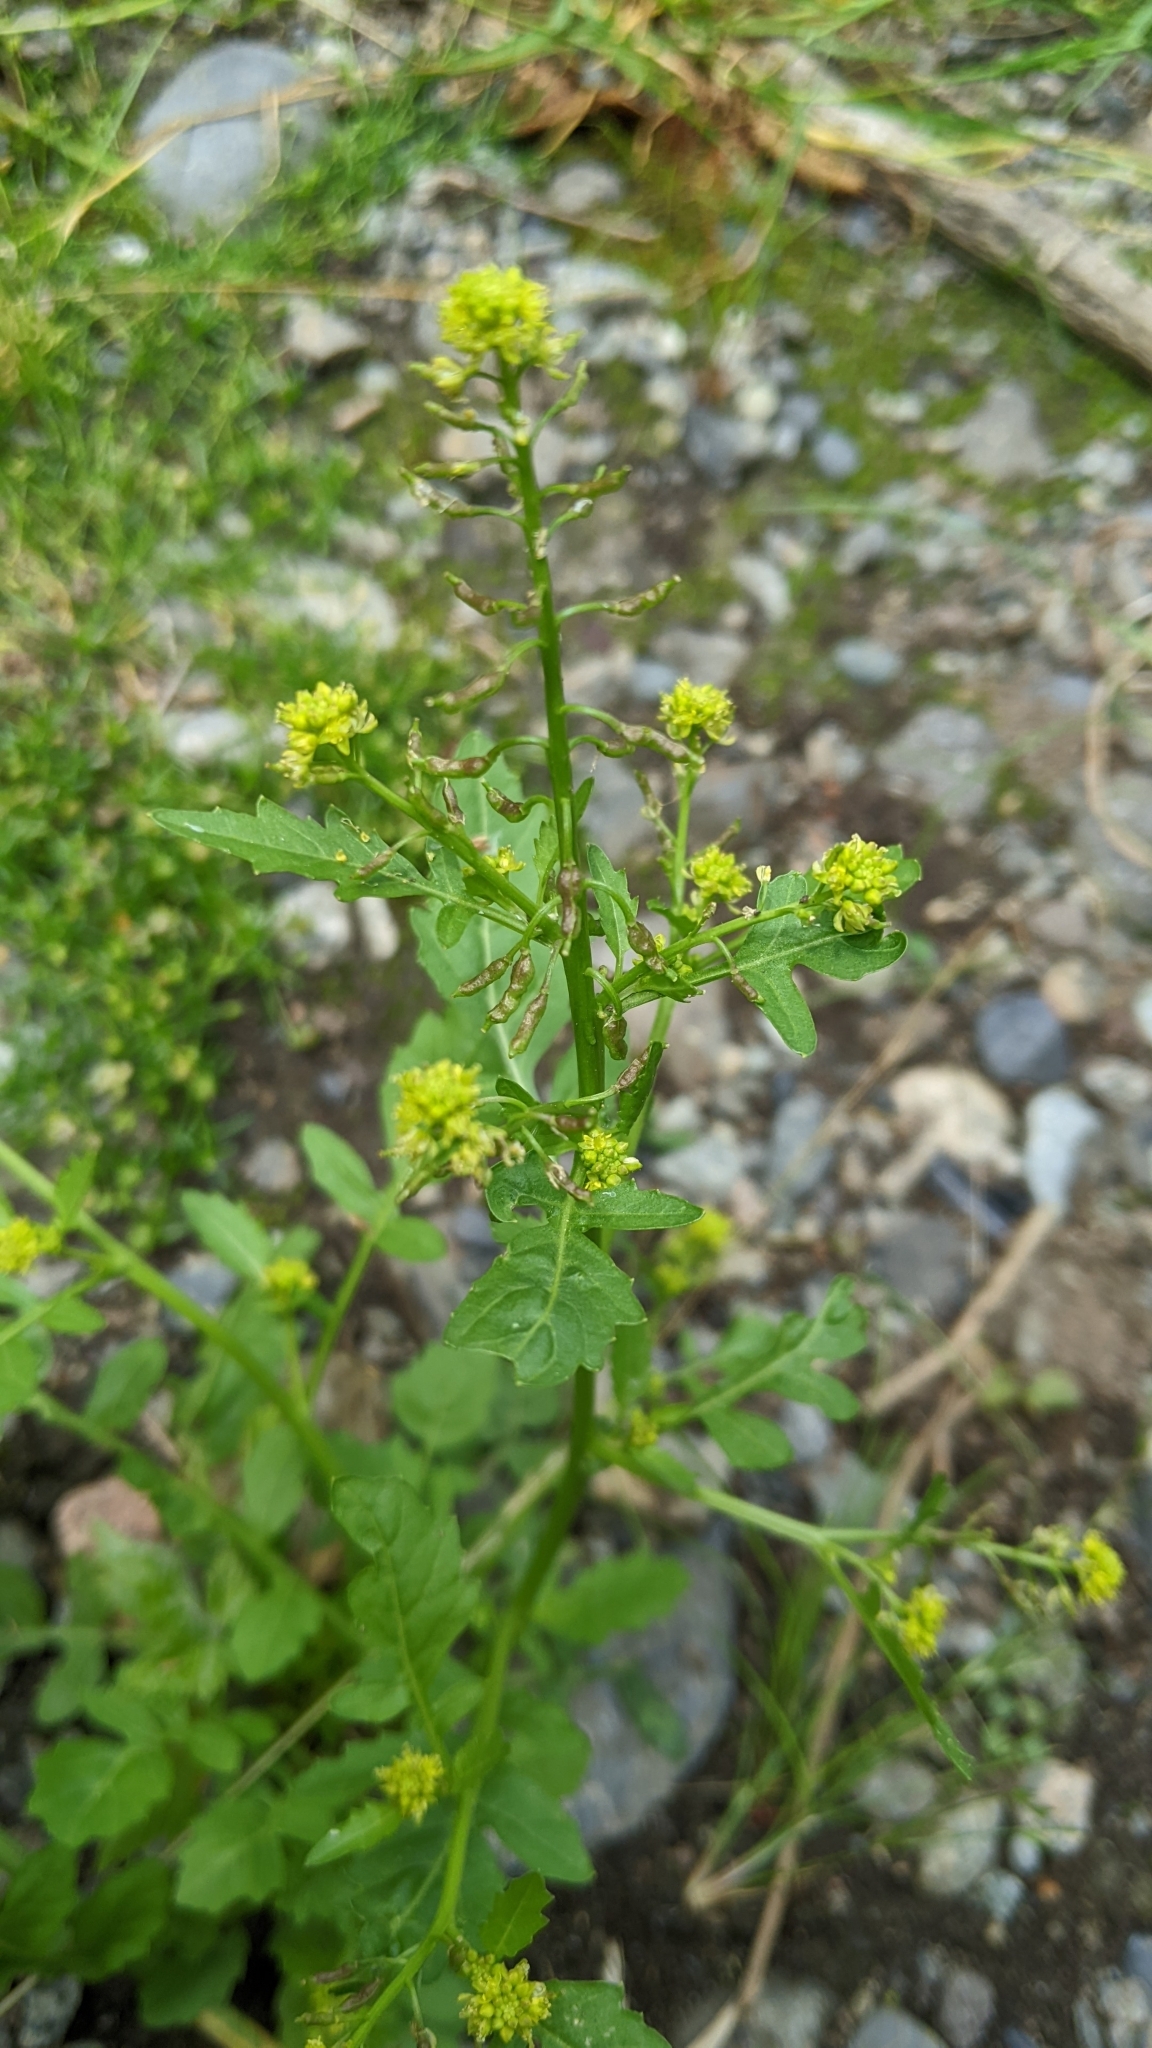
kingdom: Plantae
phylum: Tracheophyta
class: Magnoliopsida
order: Brassicales
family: Brassicaceae
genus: Rorippa
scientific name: Rorippa palustris
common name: Marsh yellow-cress
